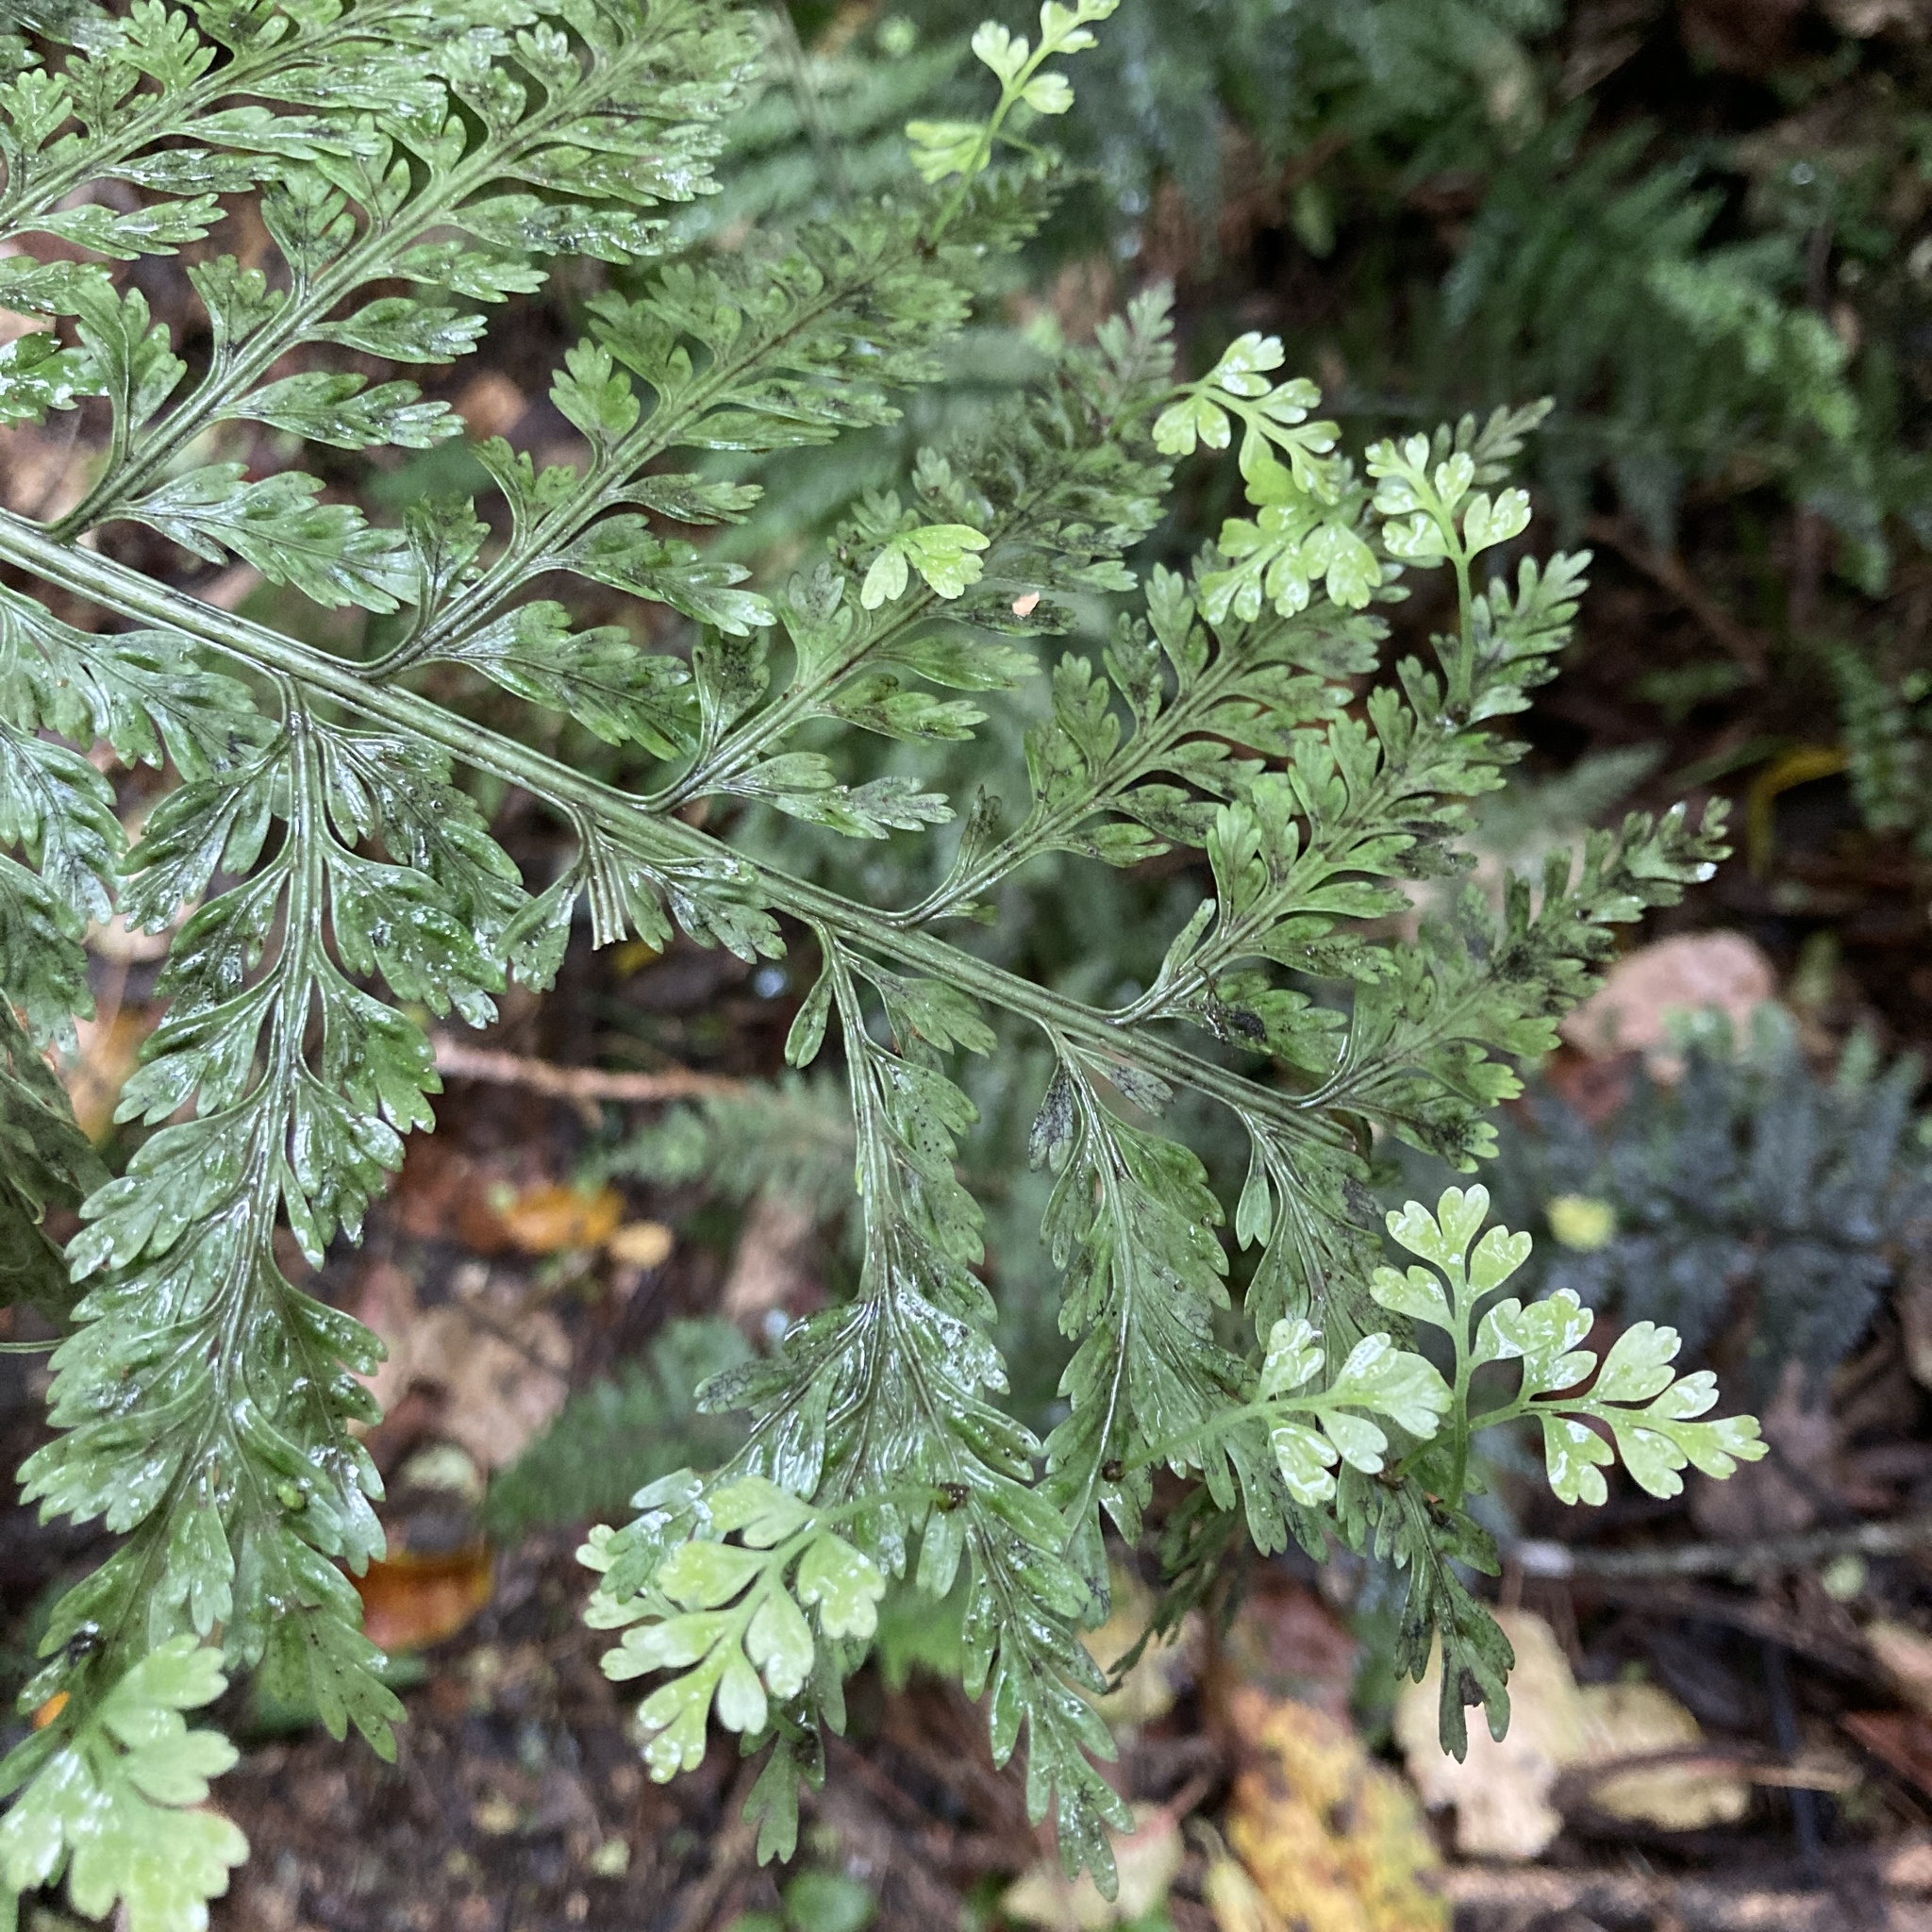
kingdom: Plantae
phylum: Tracheophyta
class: Polypodiopsida
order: Polypodiales
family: Aspleniaceae
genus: Asplenium
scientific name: Asplenium bulbiferum
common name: Mother fern
